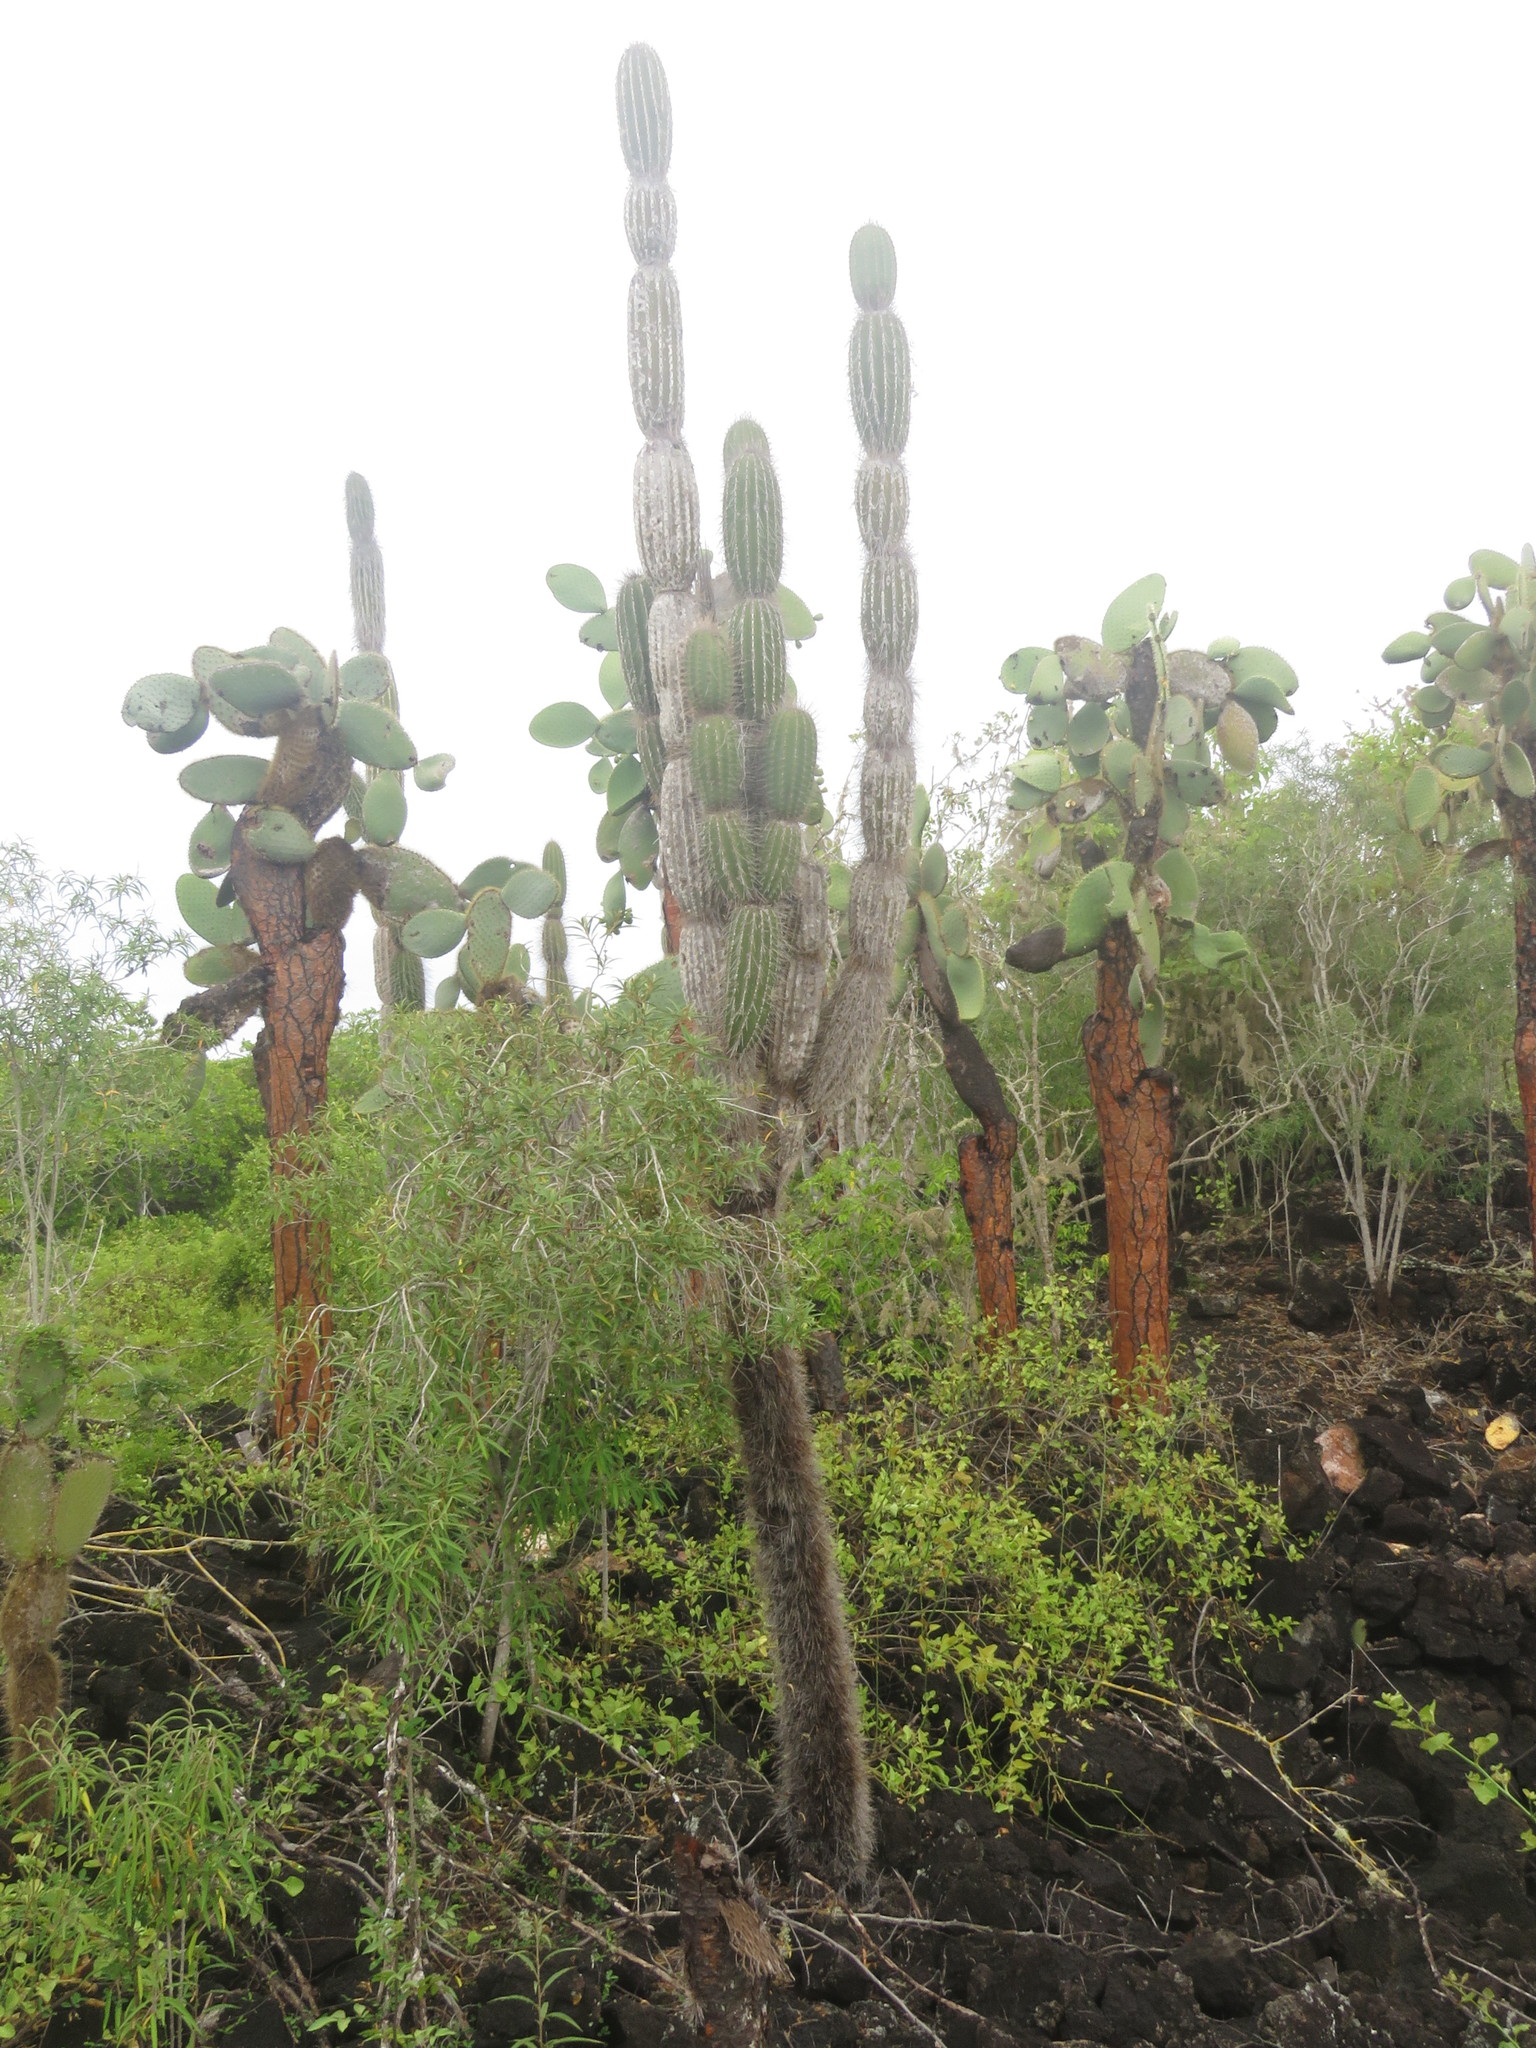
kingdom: Plantae
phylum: Tracheophyta
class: Magnoliopsida
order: Caryophyllales
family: Cactaceae
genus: Jasminocereus
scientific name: Jasminocereus thouarsii
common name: Candelabra cactus
